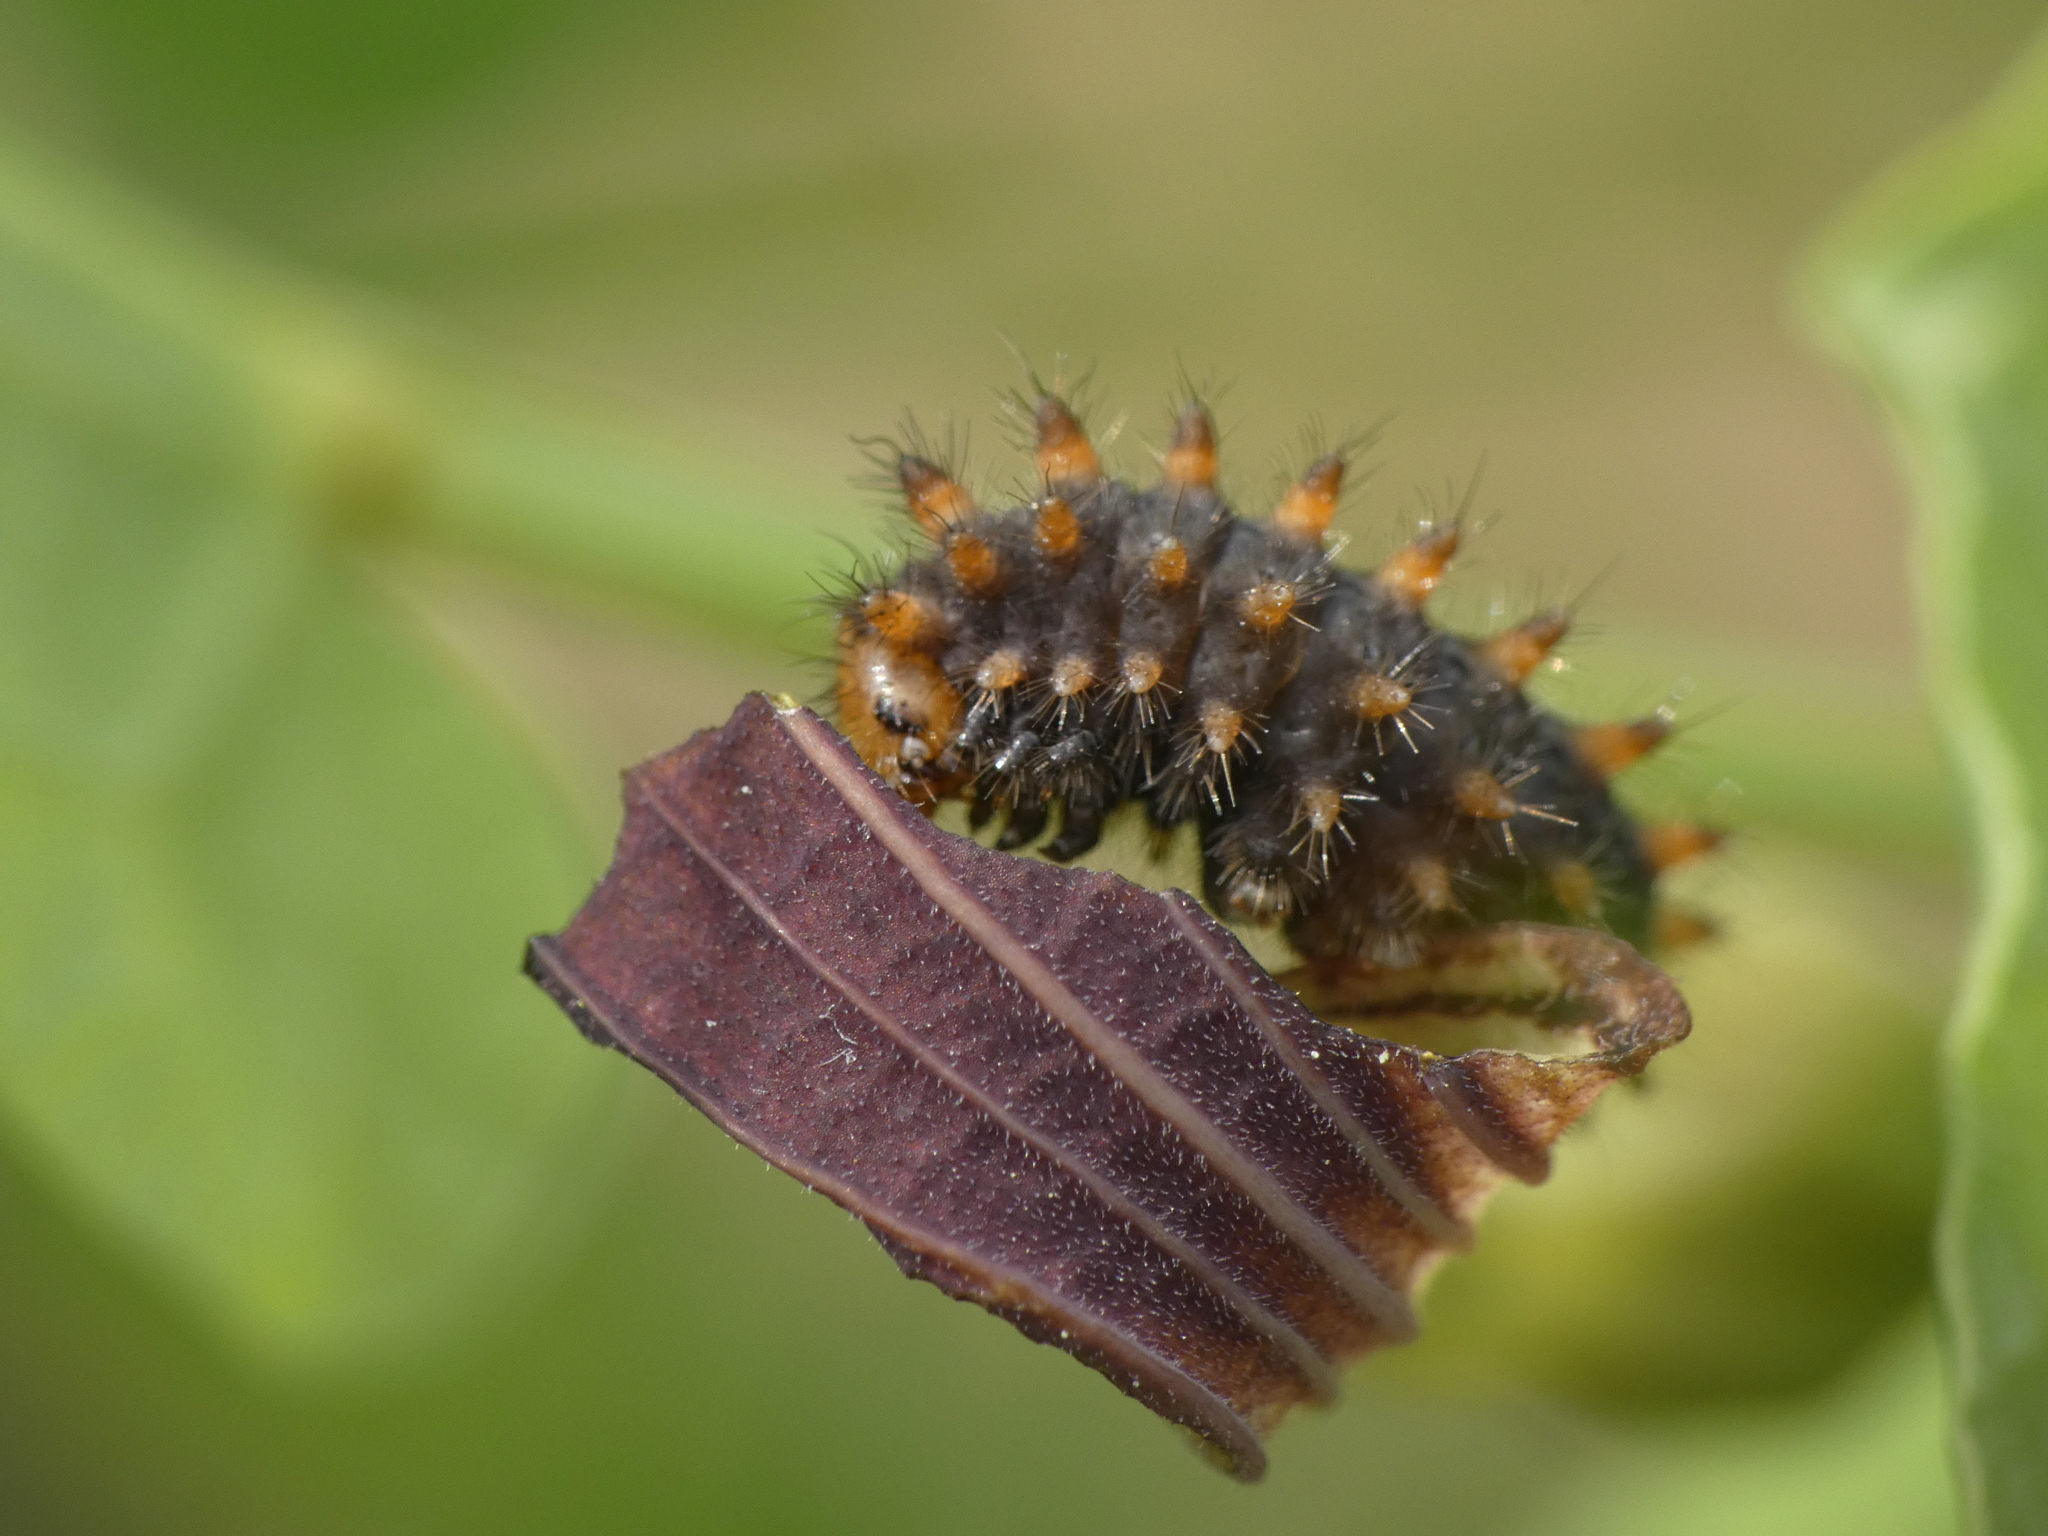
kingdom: Animalia
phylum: Arthropoda
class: Insecta
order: Lepidoptera
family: Papilionidae
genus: Zerynthia
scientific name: Zerynthia polyxena
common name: Southern festoon
